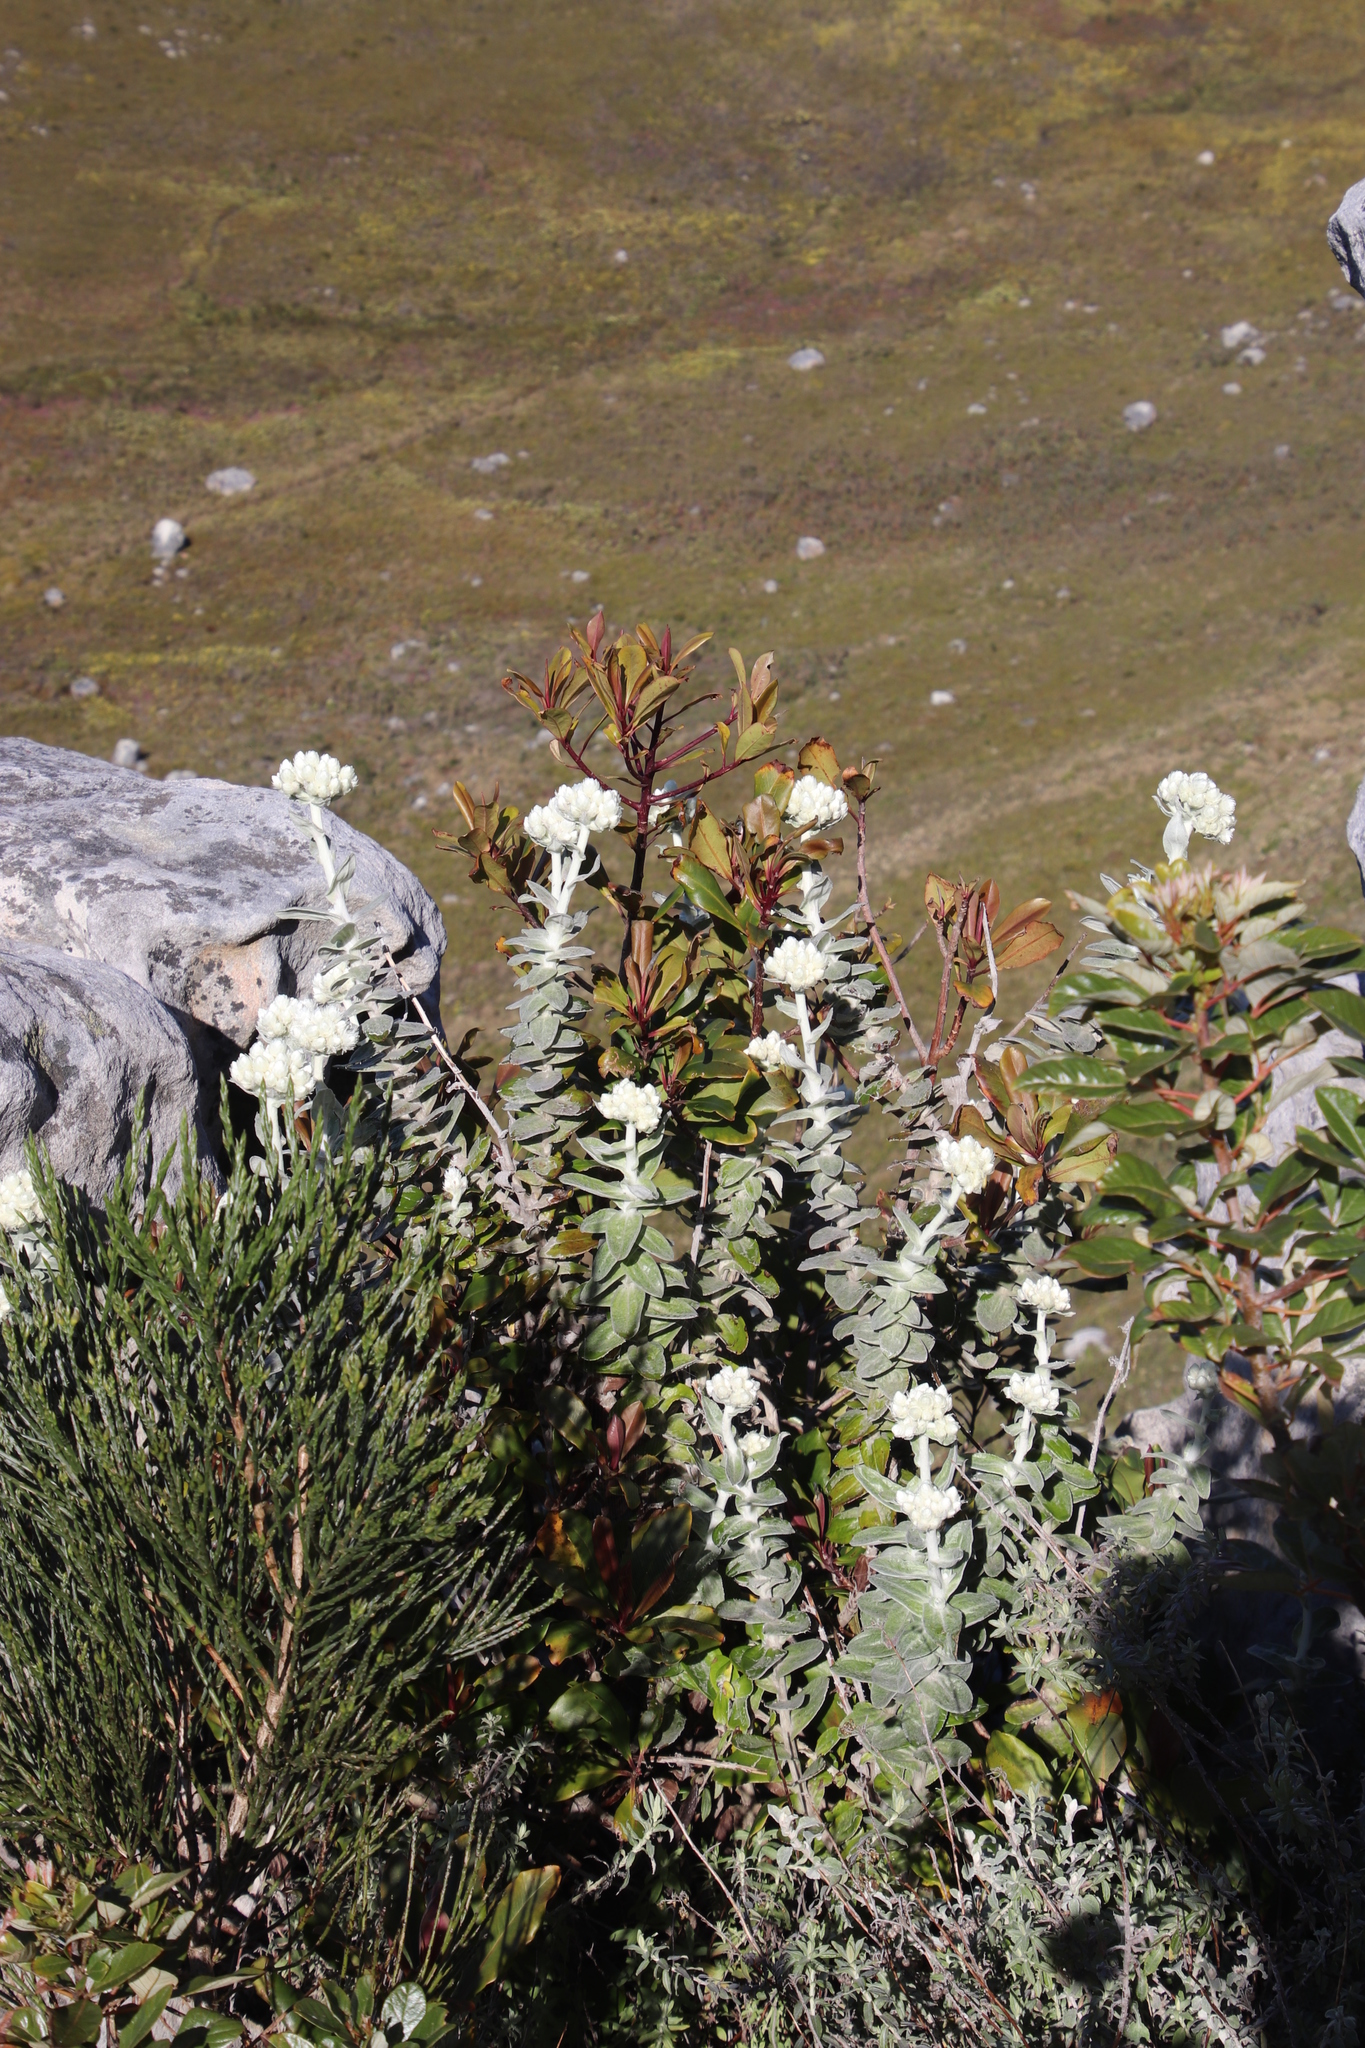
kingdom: Plantae
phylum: Tracheophyta
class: Magnoliopsida
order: Asterales
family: Asteraceae
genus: Helichrysum
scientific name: Helichrysum fruticans
